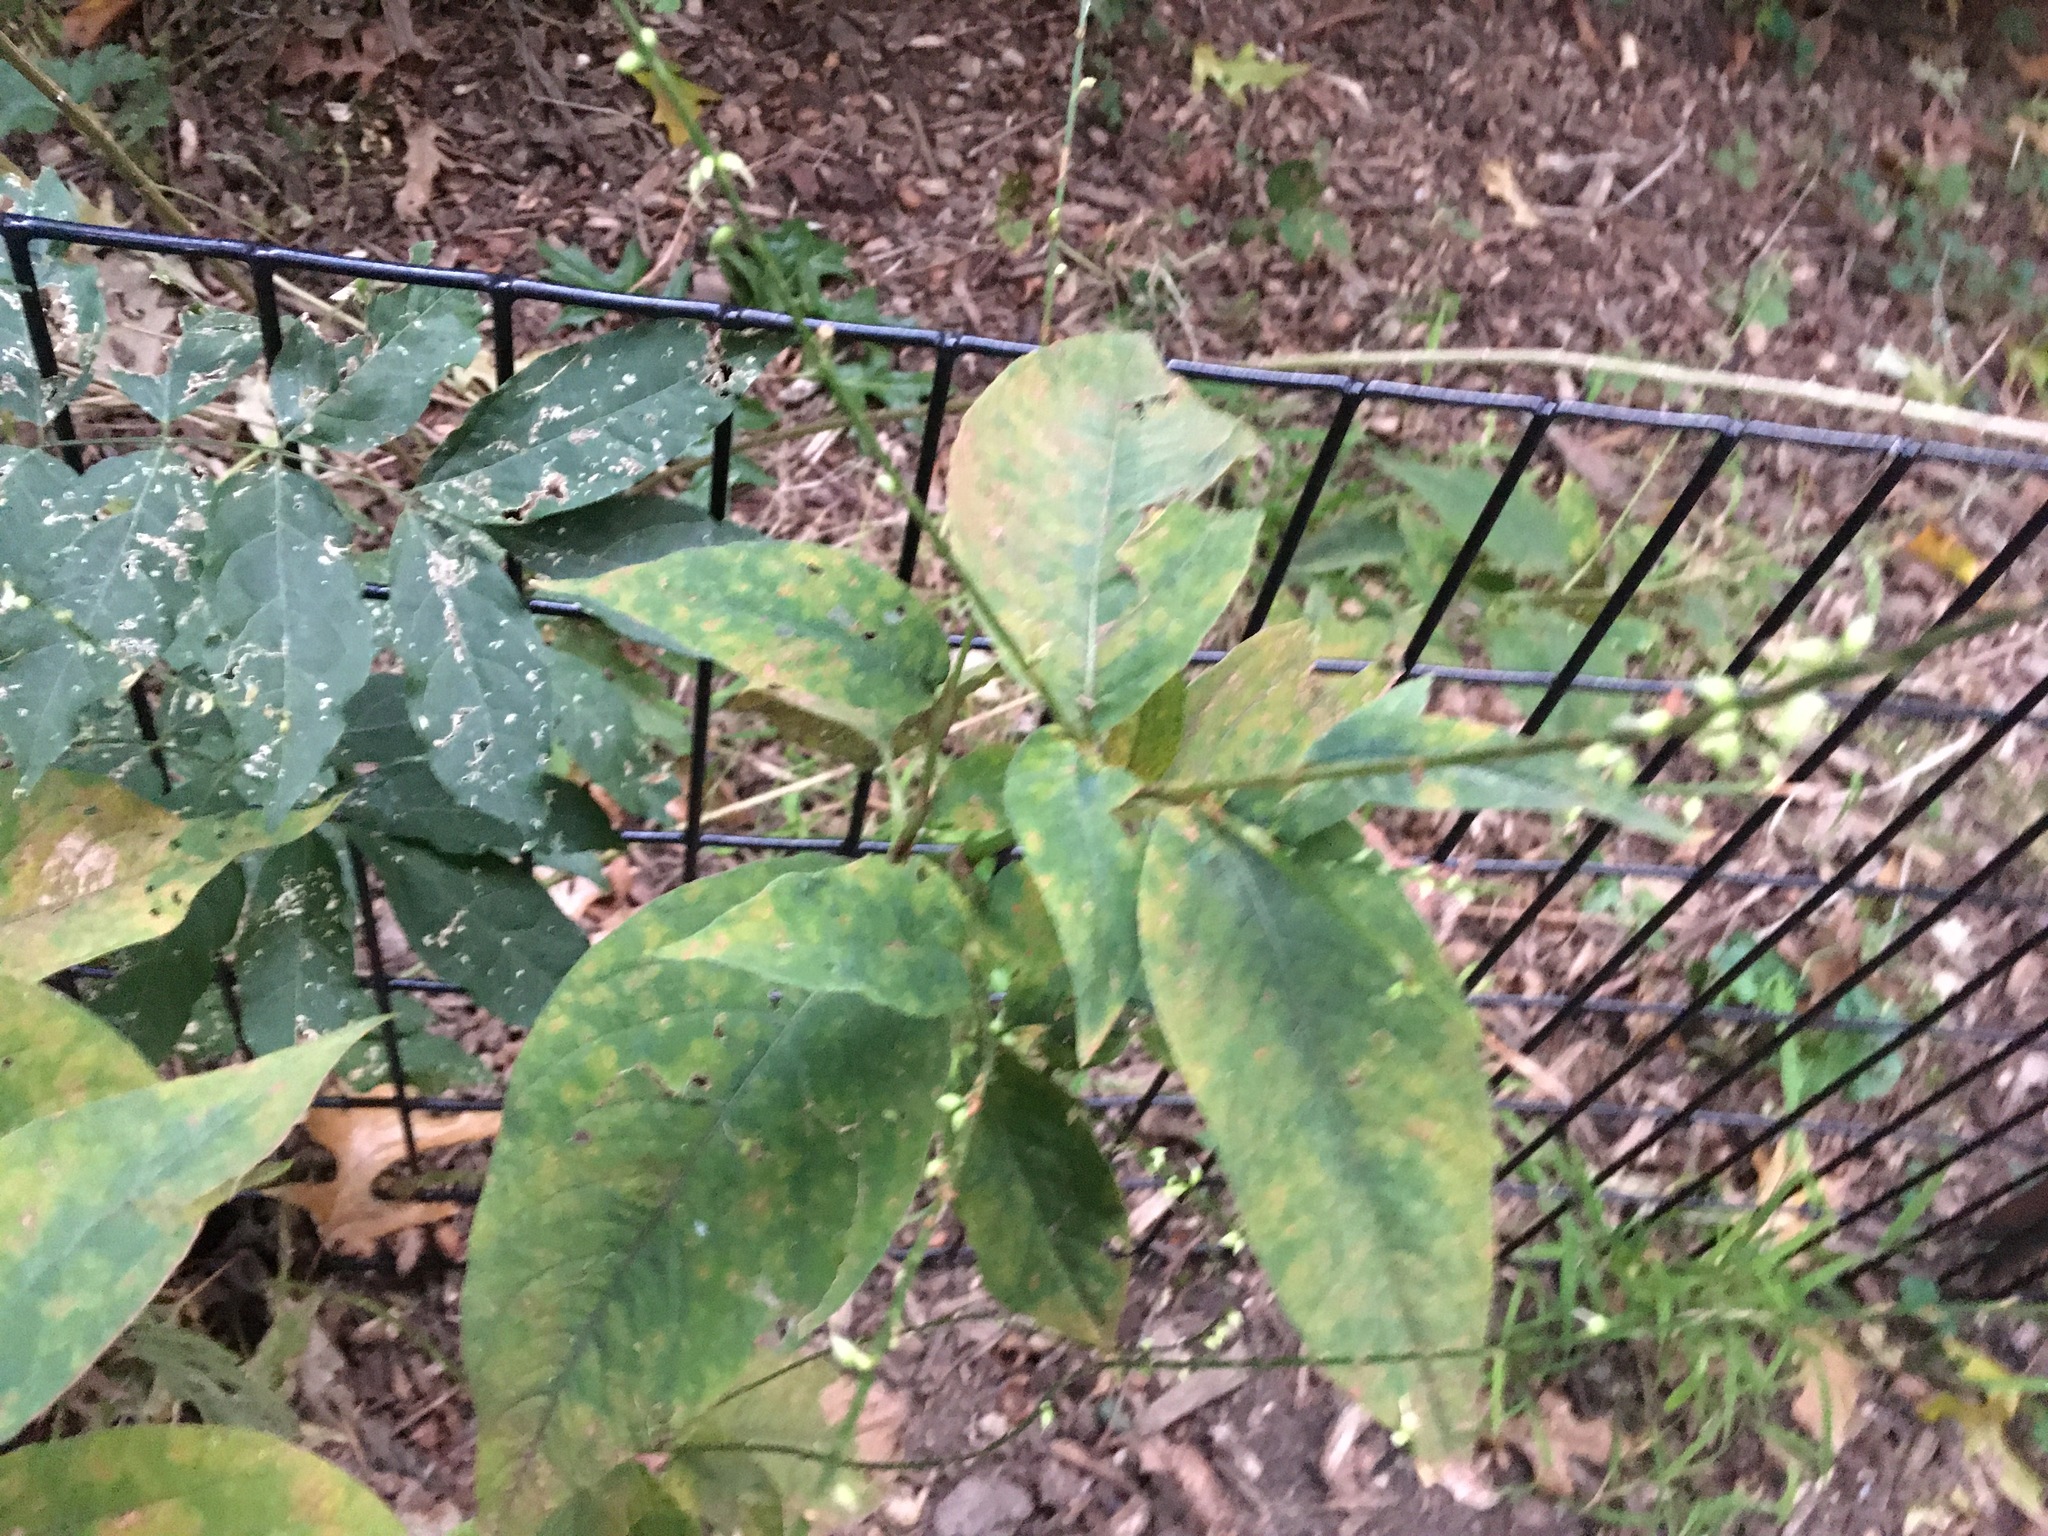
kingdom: Plantae
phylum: Tracheophyta
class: Magnoliopsida
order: Caryophyllales
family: Polygonaceae
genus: Persicaria
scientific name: Persicaria virginiana
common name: Jumpseed
